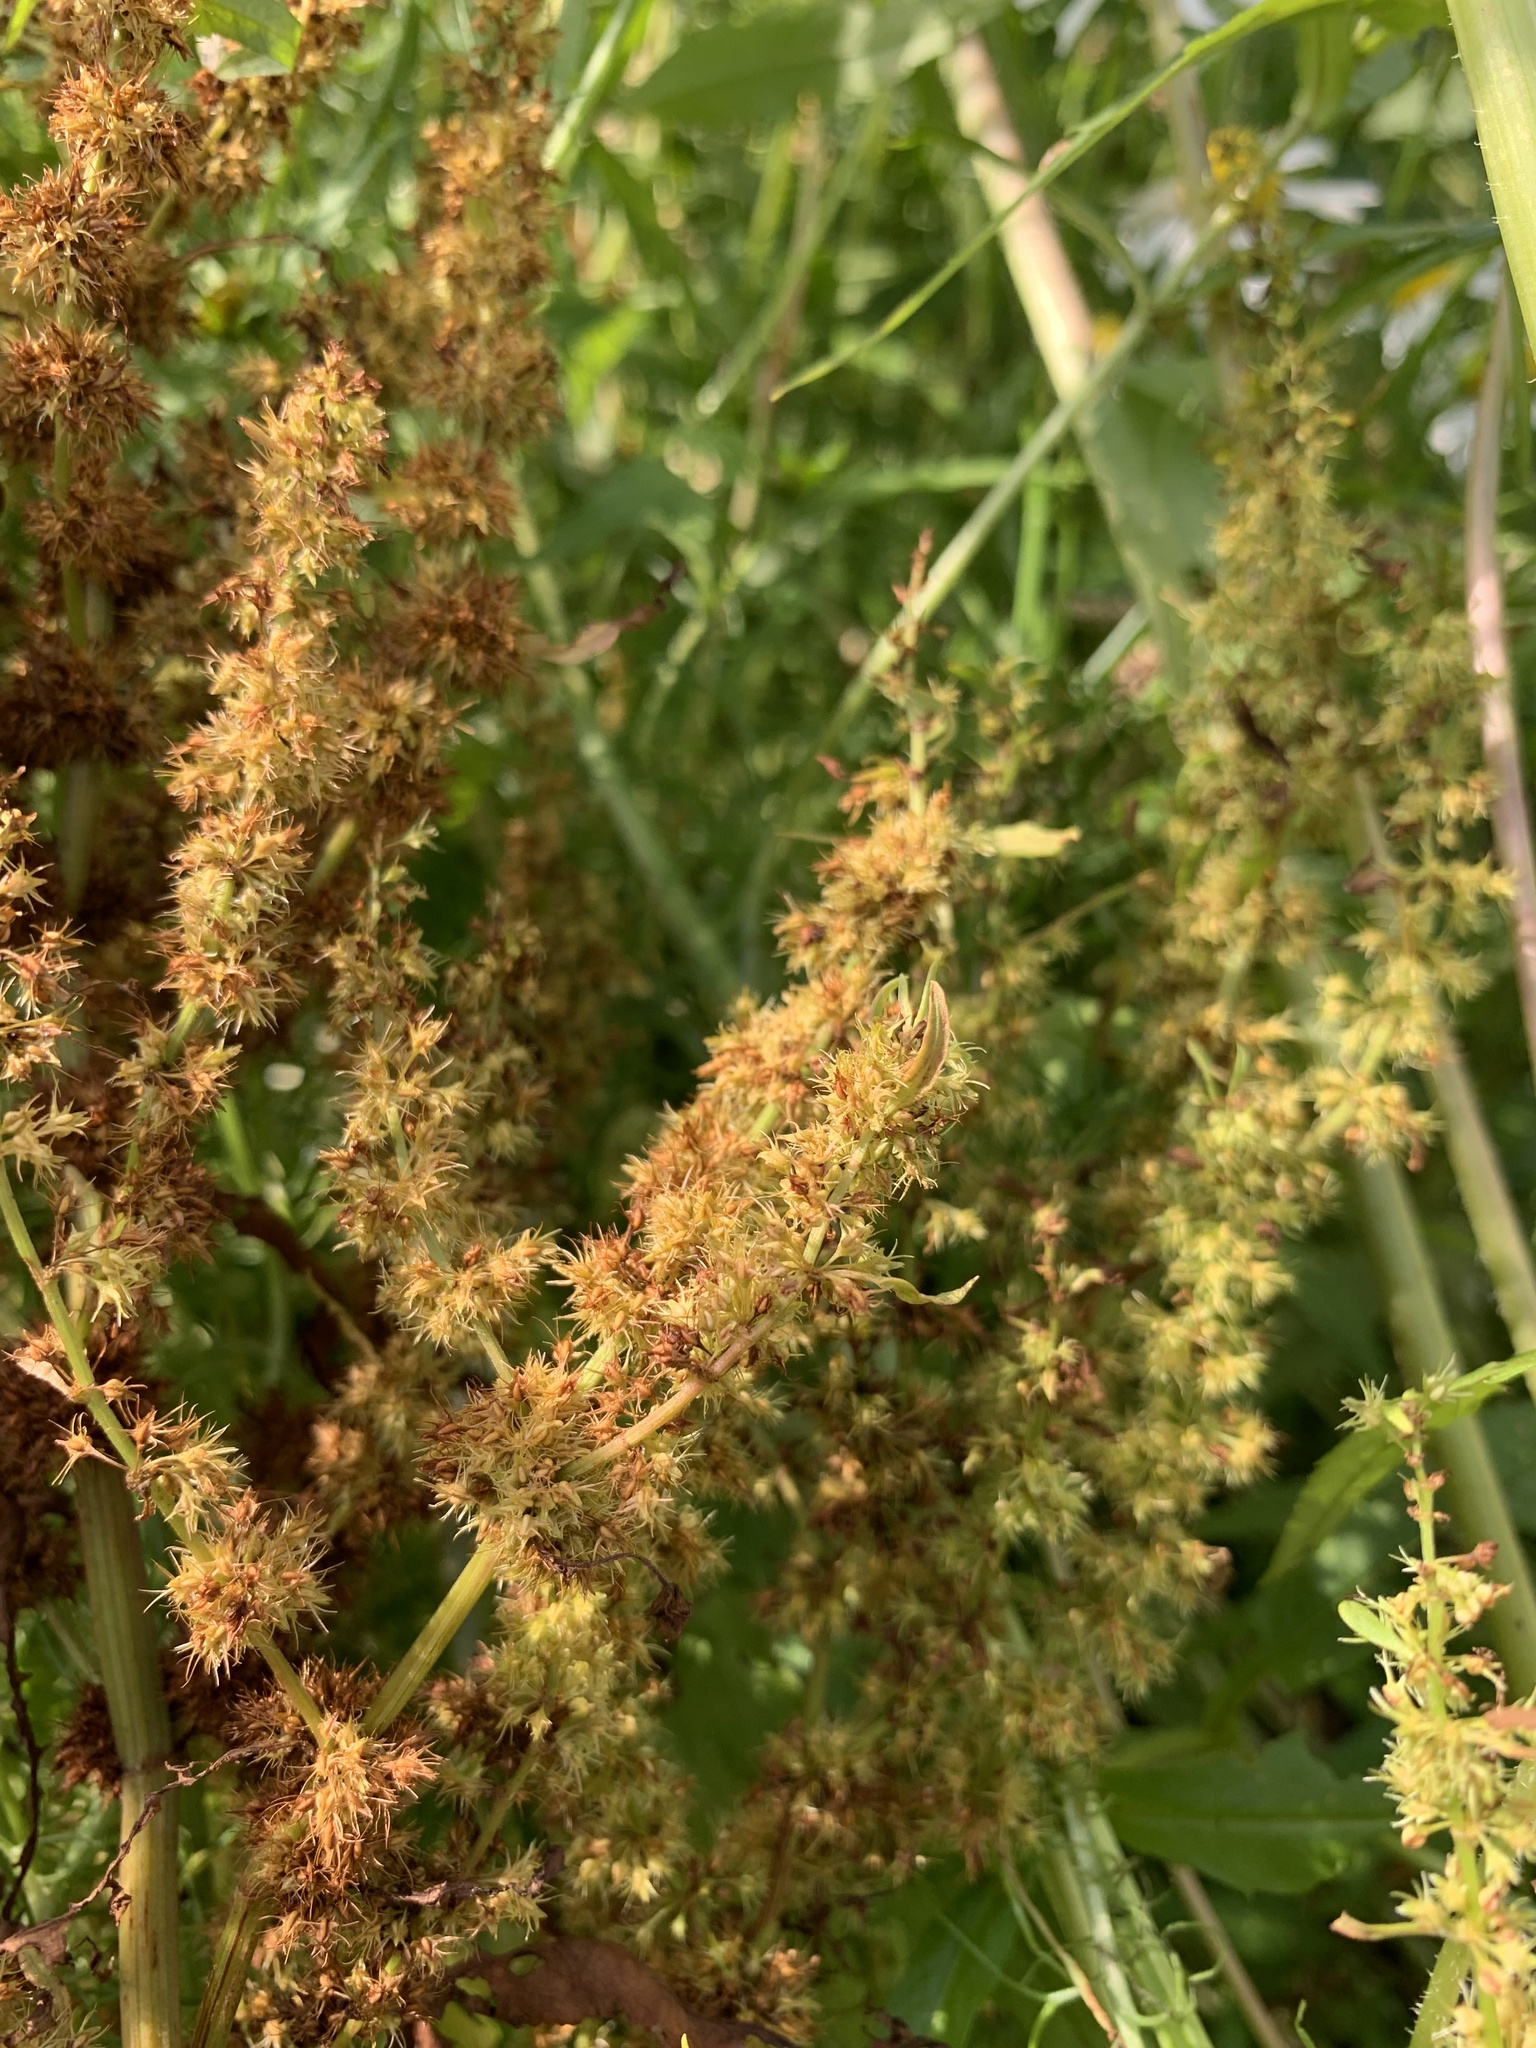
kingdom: Plantae
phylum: Tracheophyta
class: Magnoliopsida
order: Caryophyllales
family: Polygonaceae
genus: Rumex
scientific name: Rumex maritimus
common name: Golden dock
